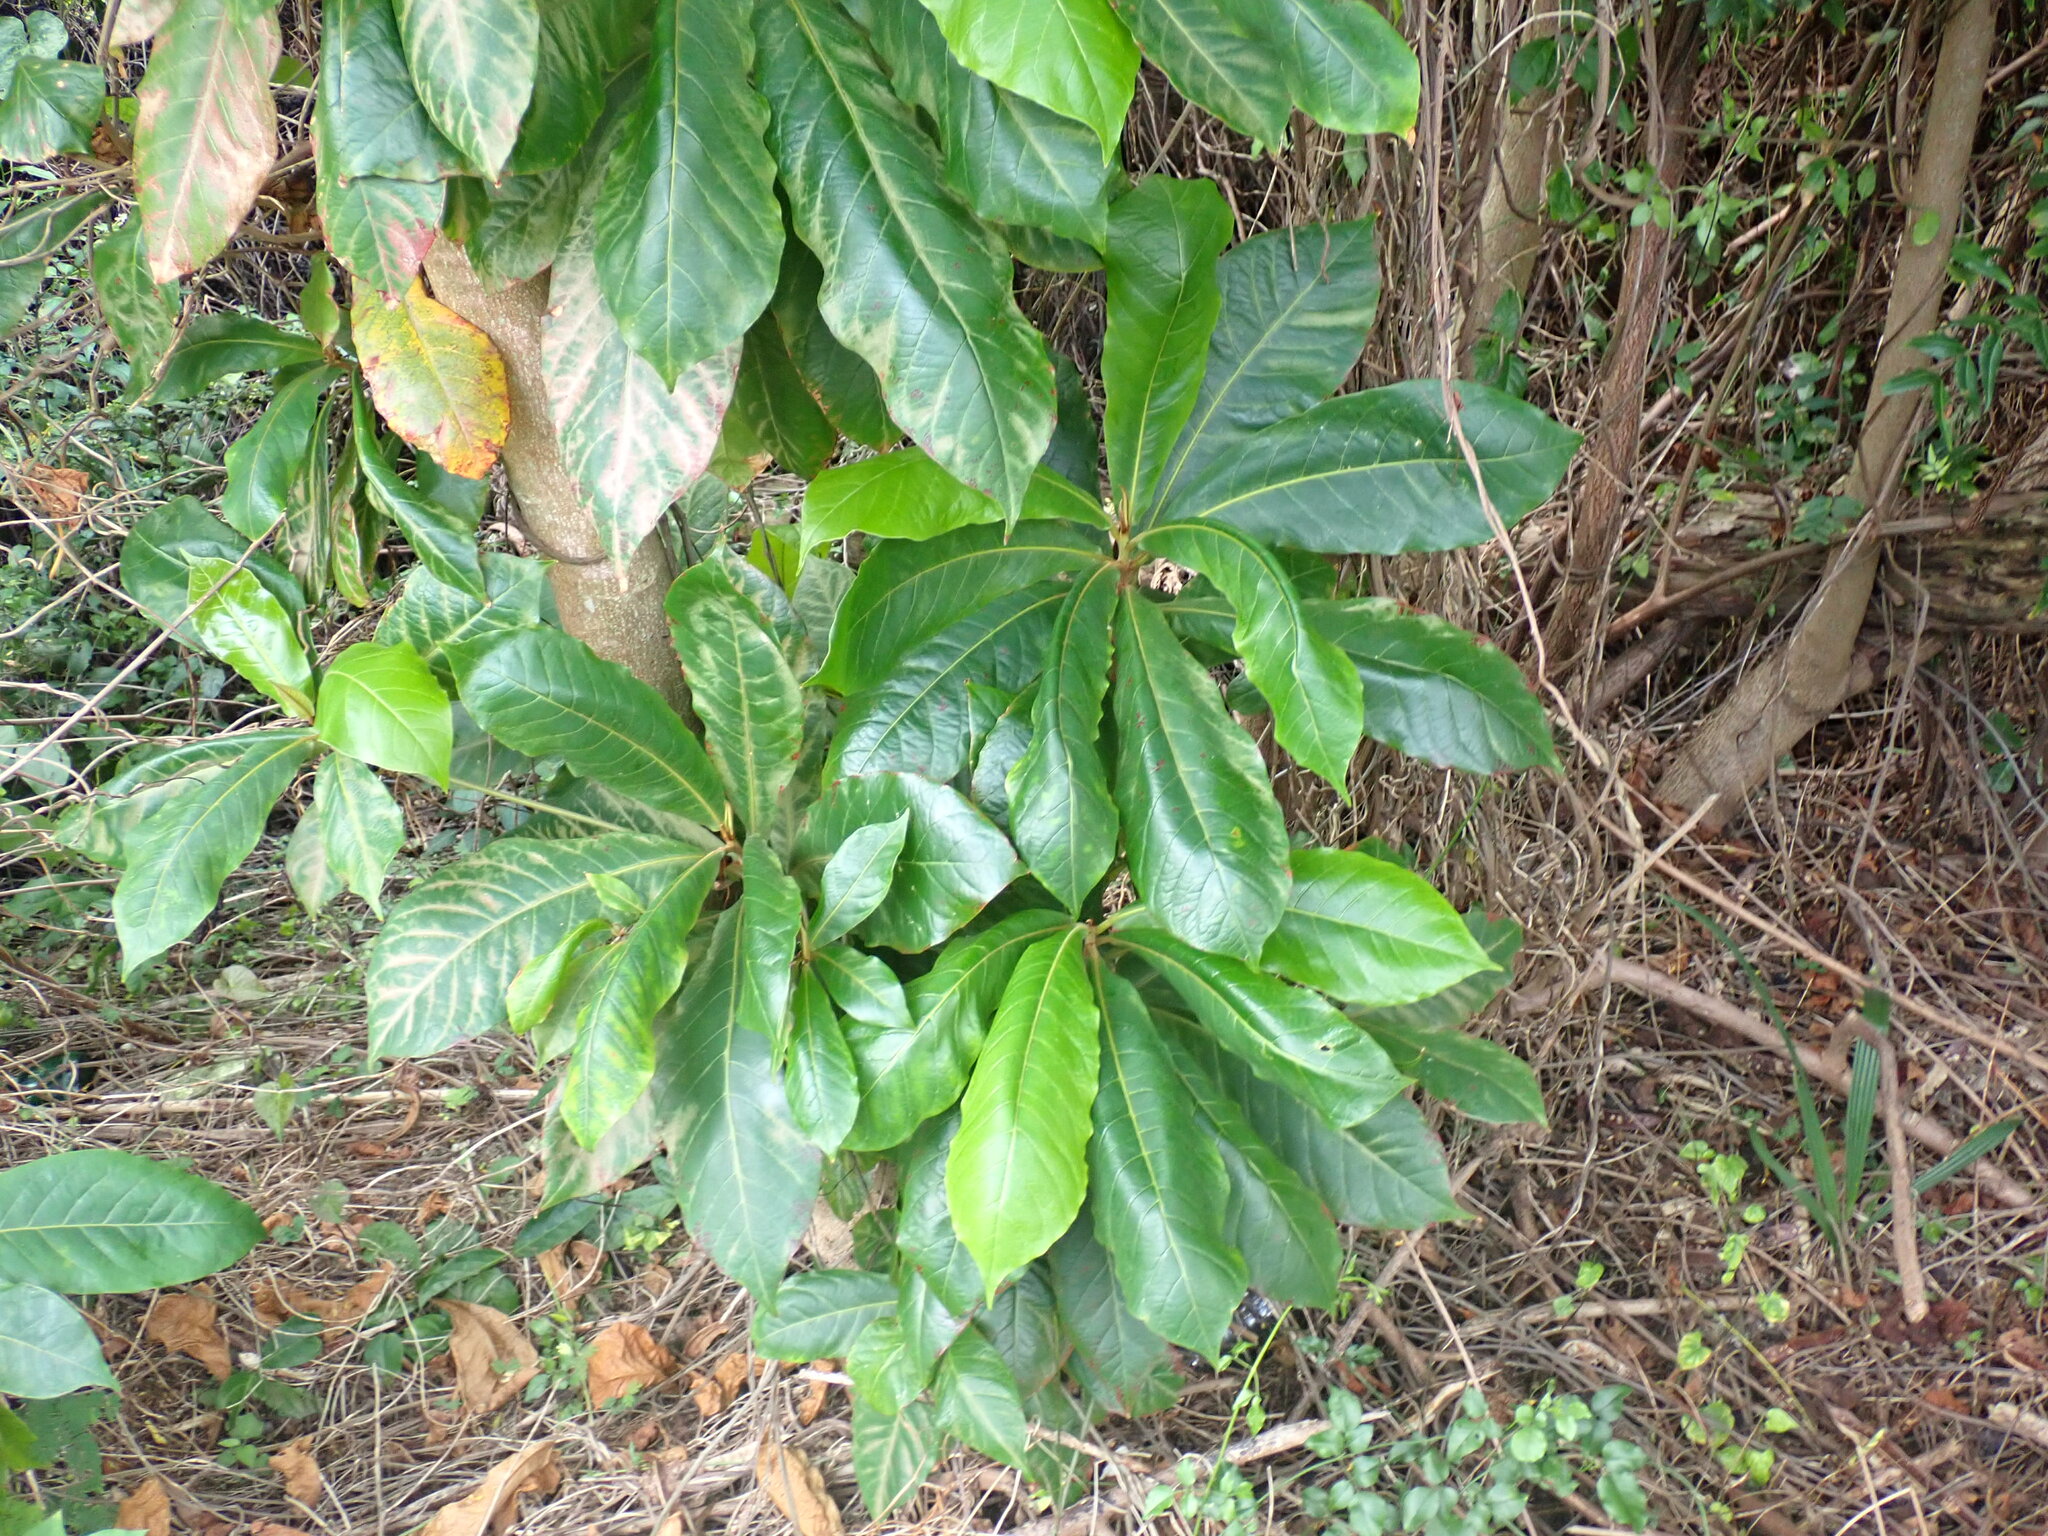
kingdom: Plantae
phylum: Tracheophyta
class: Magnoliopsida
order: Myrtales
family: Combretaceae
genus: Terminalia
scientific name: Terminalia catappa
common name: Tropical almond
